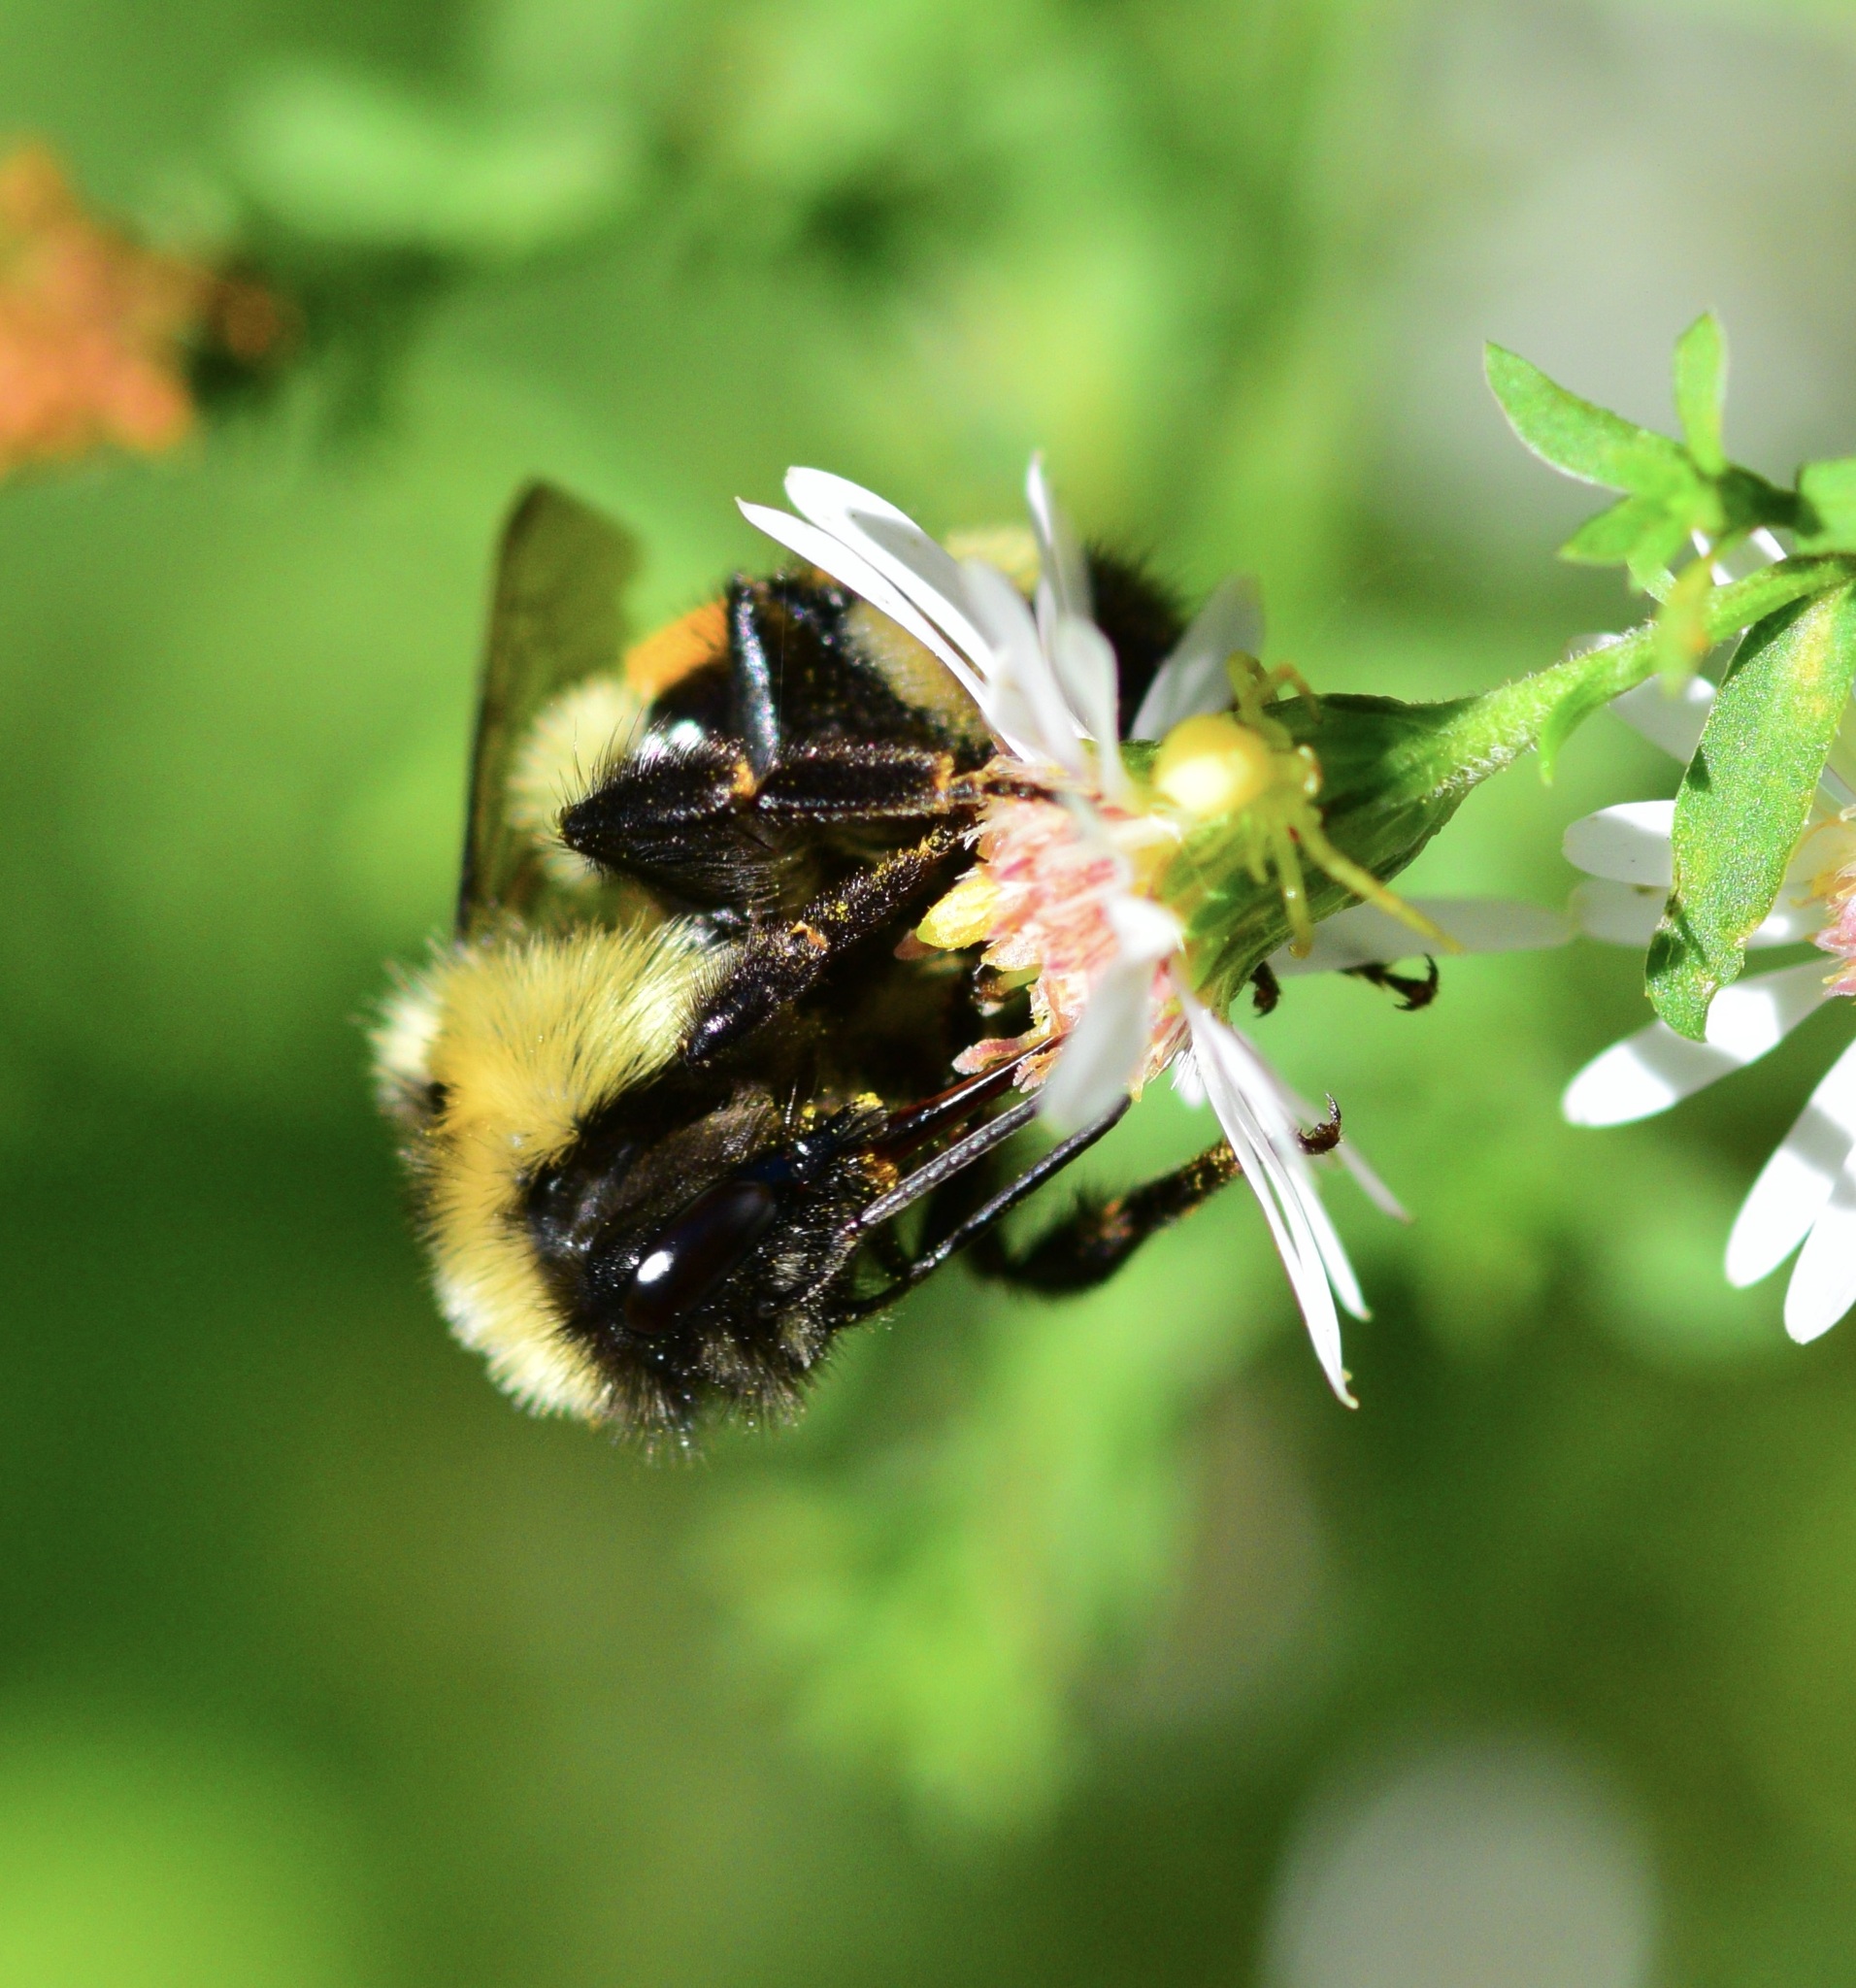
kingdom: Animalia
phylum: Arthropoda
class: Insecta
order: Hymenoptera
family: Apidae
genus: Bombus
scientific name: Bombus ternarius
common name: Tri-colored bumble bee
